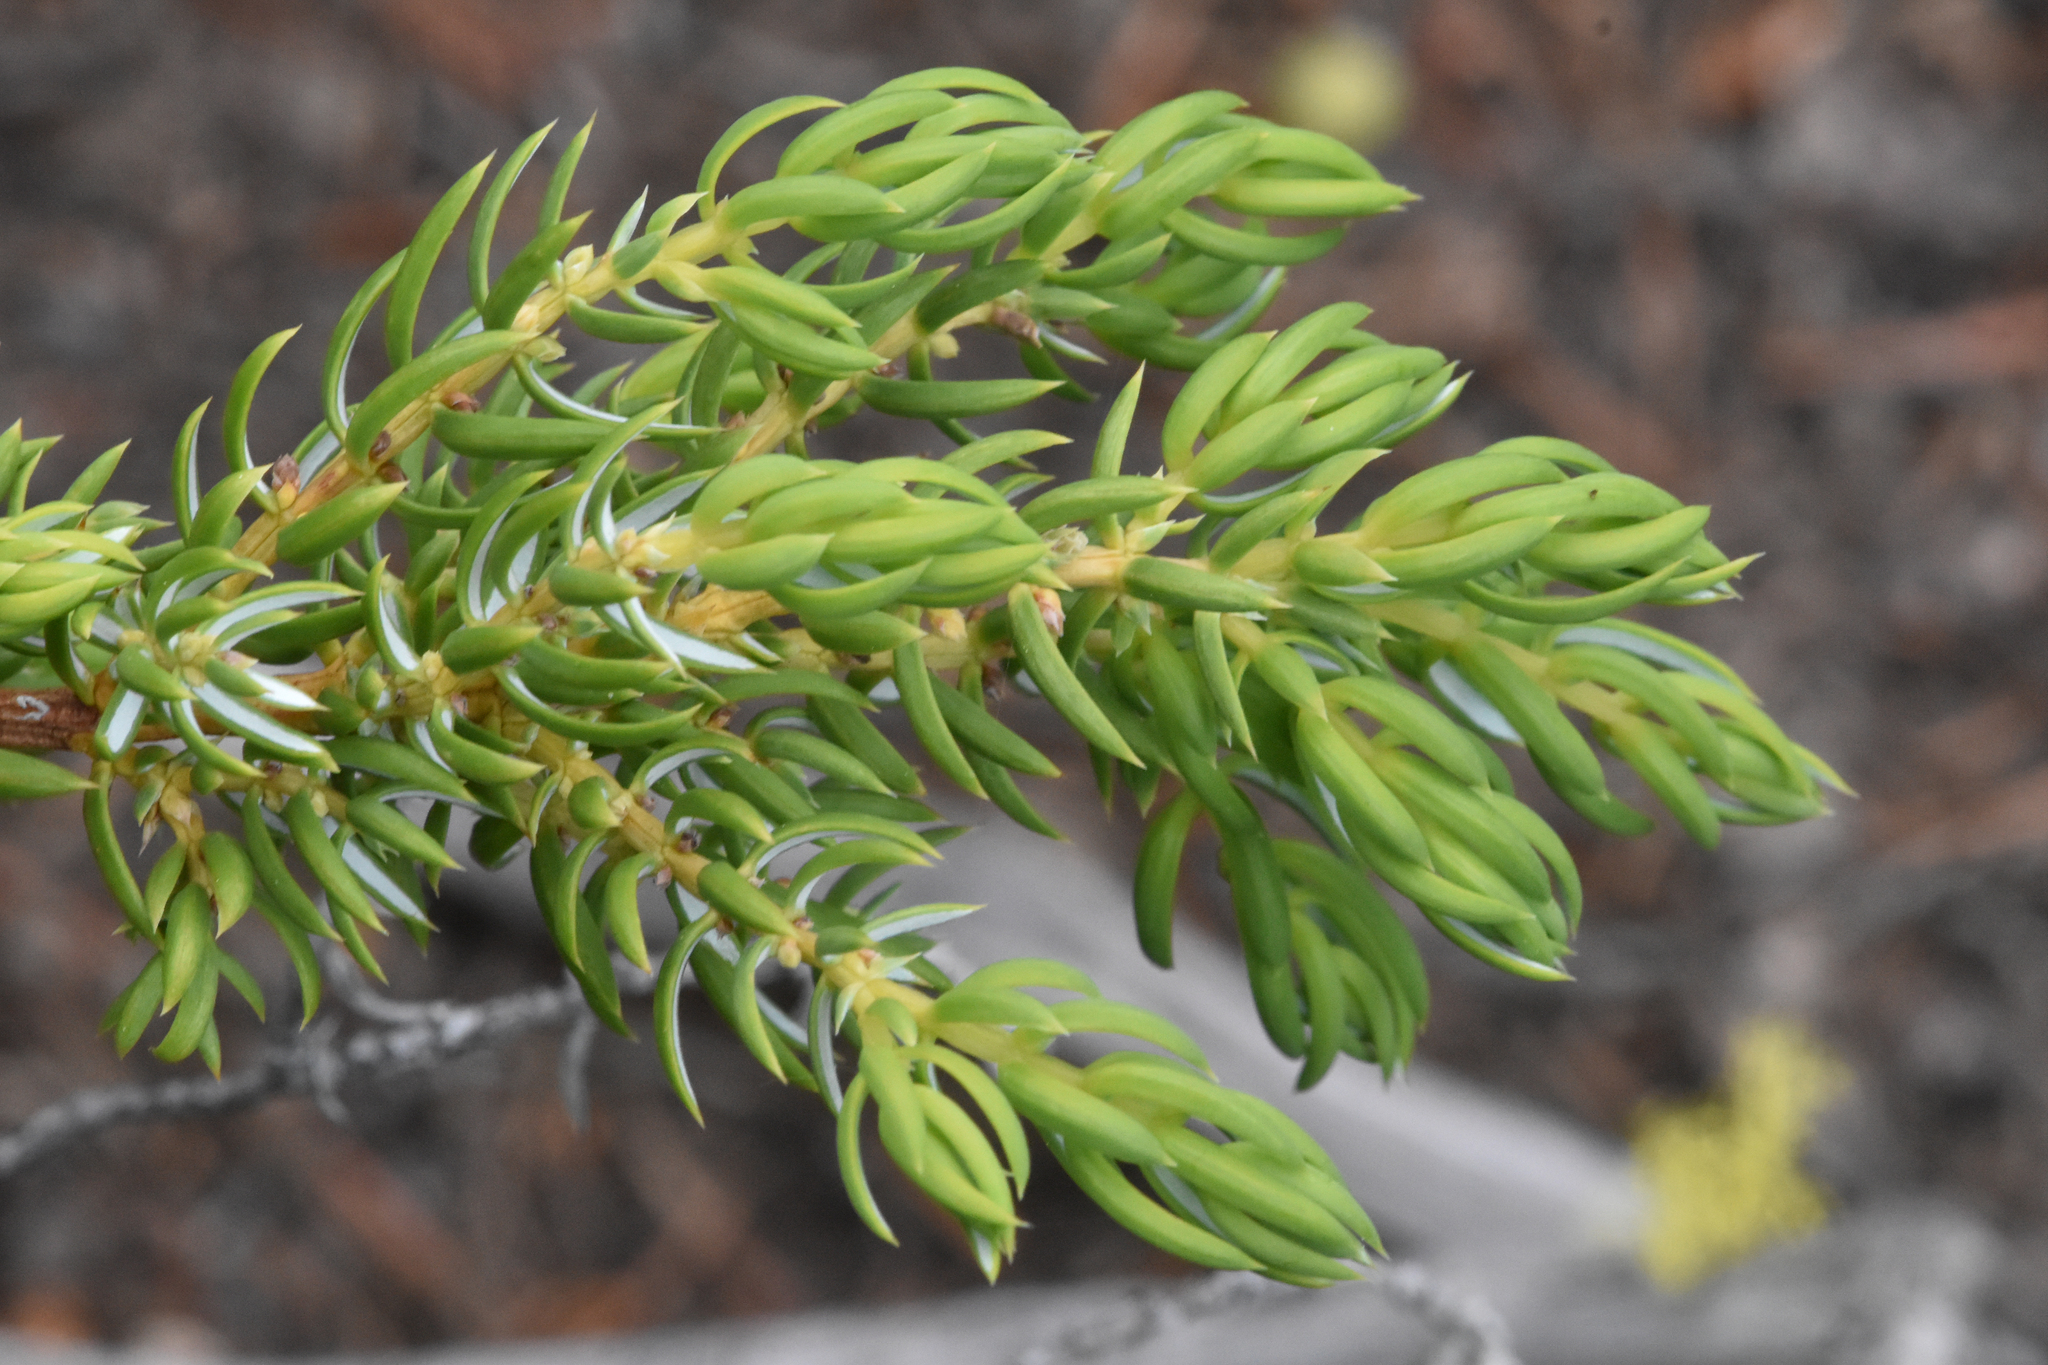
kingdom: Plantae
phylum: Tracheophyta
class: Pinopsida
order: Pinales
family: Cupressaceae
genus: Juniperus
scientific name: Juniperus communis
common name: Common juniper
